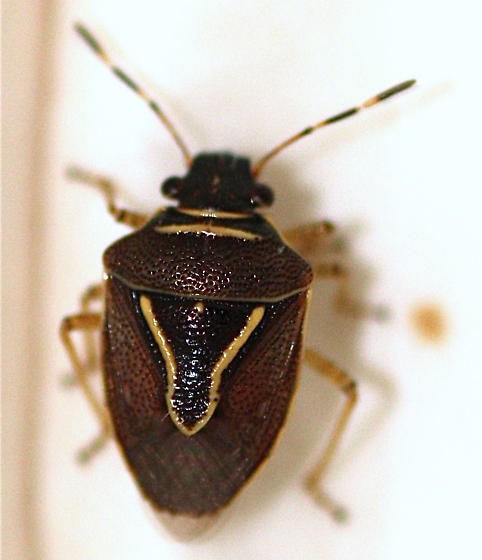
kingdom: Animalia
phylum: Arthropoda
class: Insecta
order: Hemiptera
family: Pentatomidae
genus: Mormidea
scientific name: Mormidea lugens
